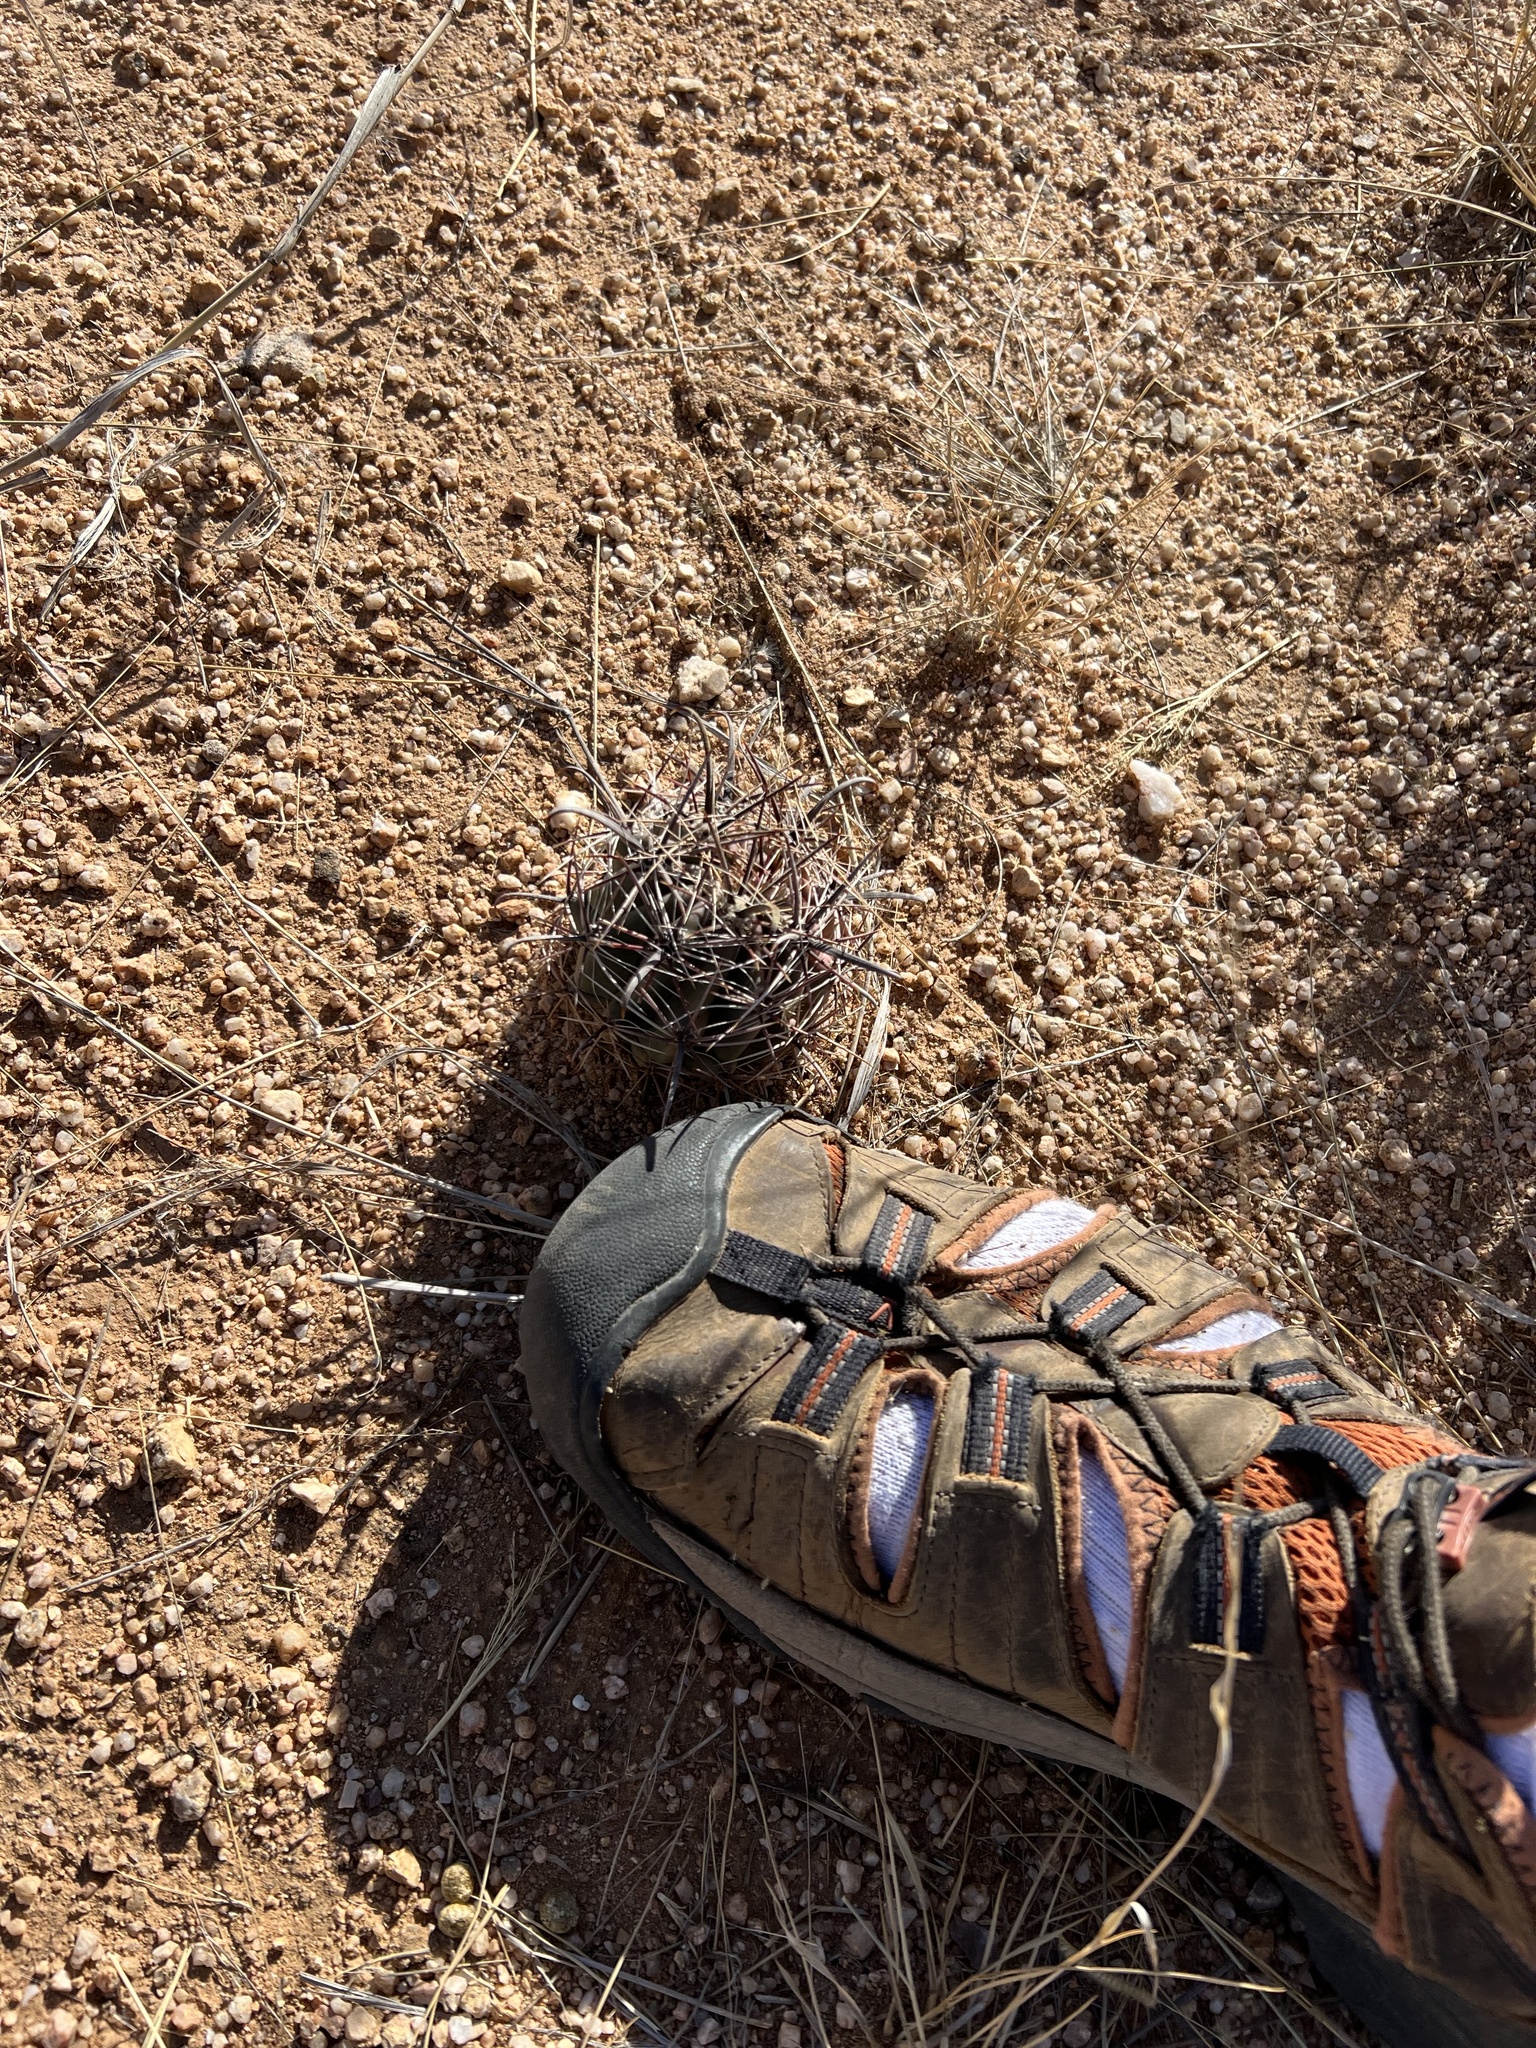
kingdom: Plantae
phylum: Tracheophyta
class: Magnoliopsida
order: Caryophyllales
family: Cactaceae
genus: Ferocactus
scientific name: Ferocactus wislizeni
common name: Candy barrel cactus
